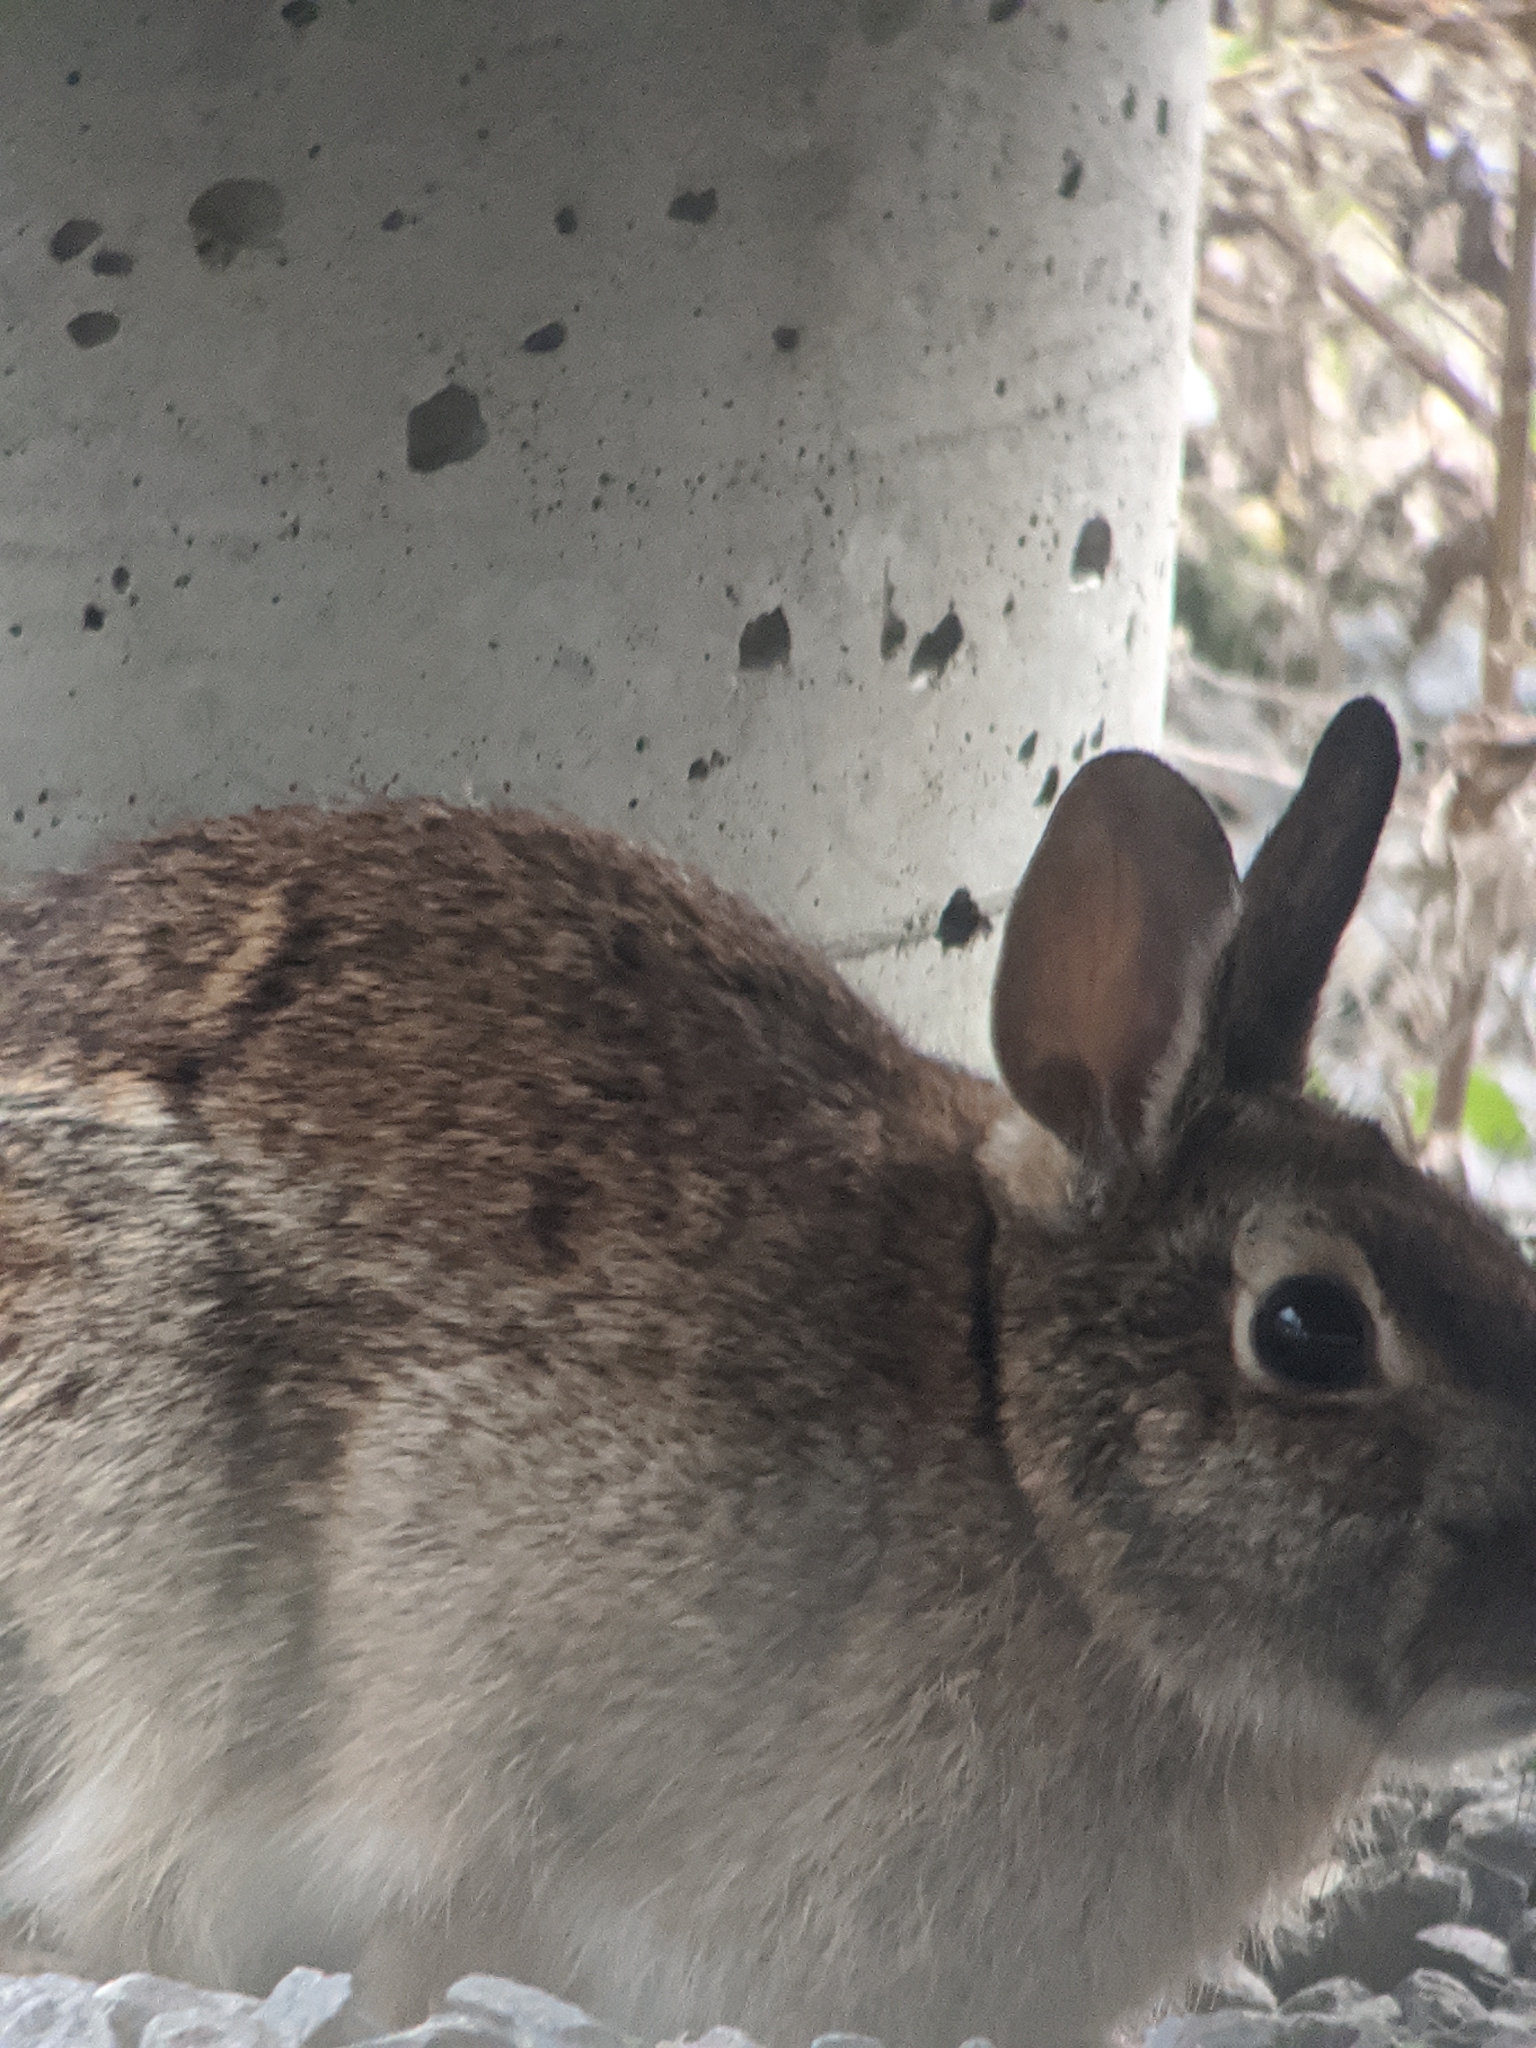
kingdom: Animalia
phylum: Chordata
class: Mammalia
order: Lagomorpha
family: Leporidae
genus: Sylvilagus
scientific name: Sylvilagus floridanus
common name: Eastern cottontail
